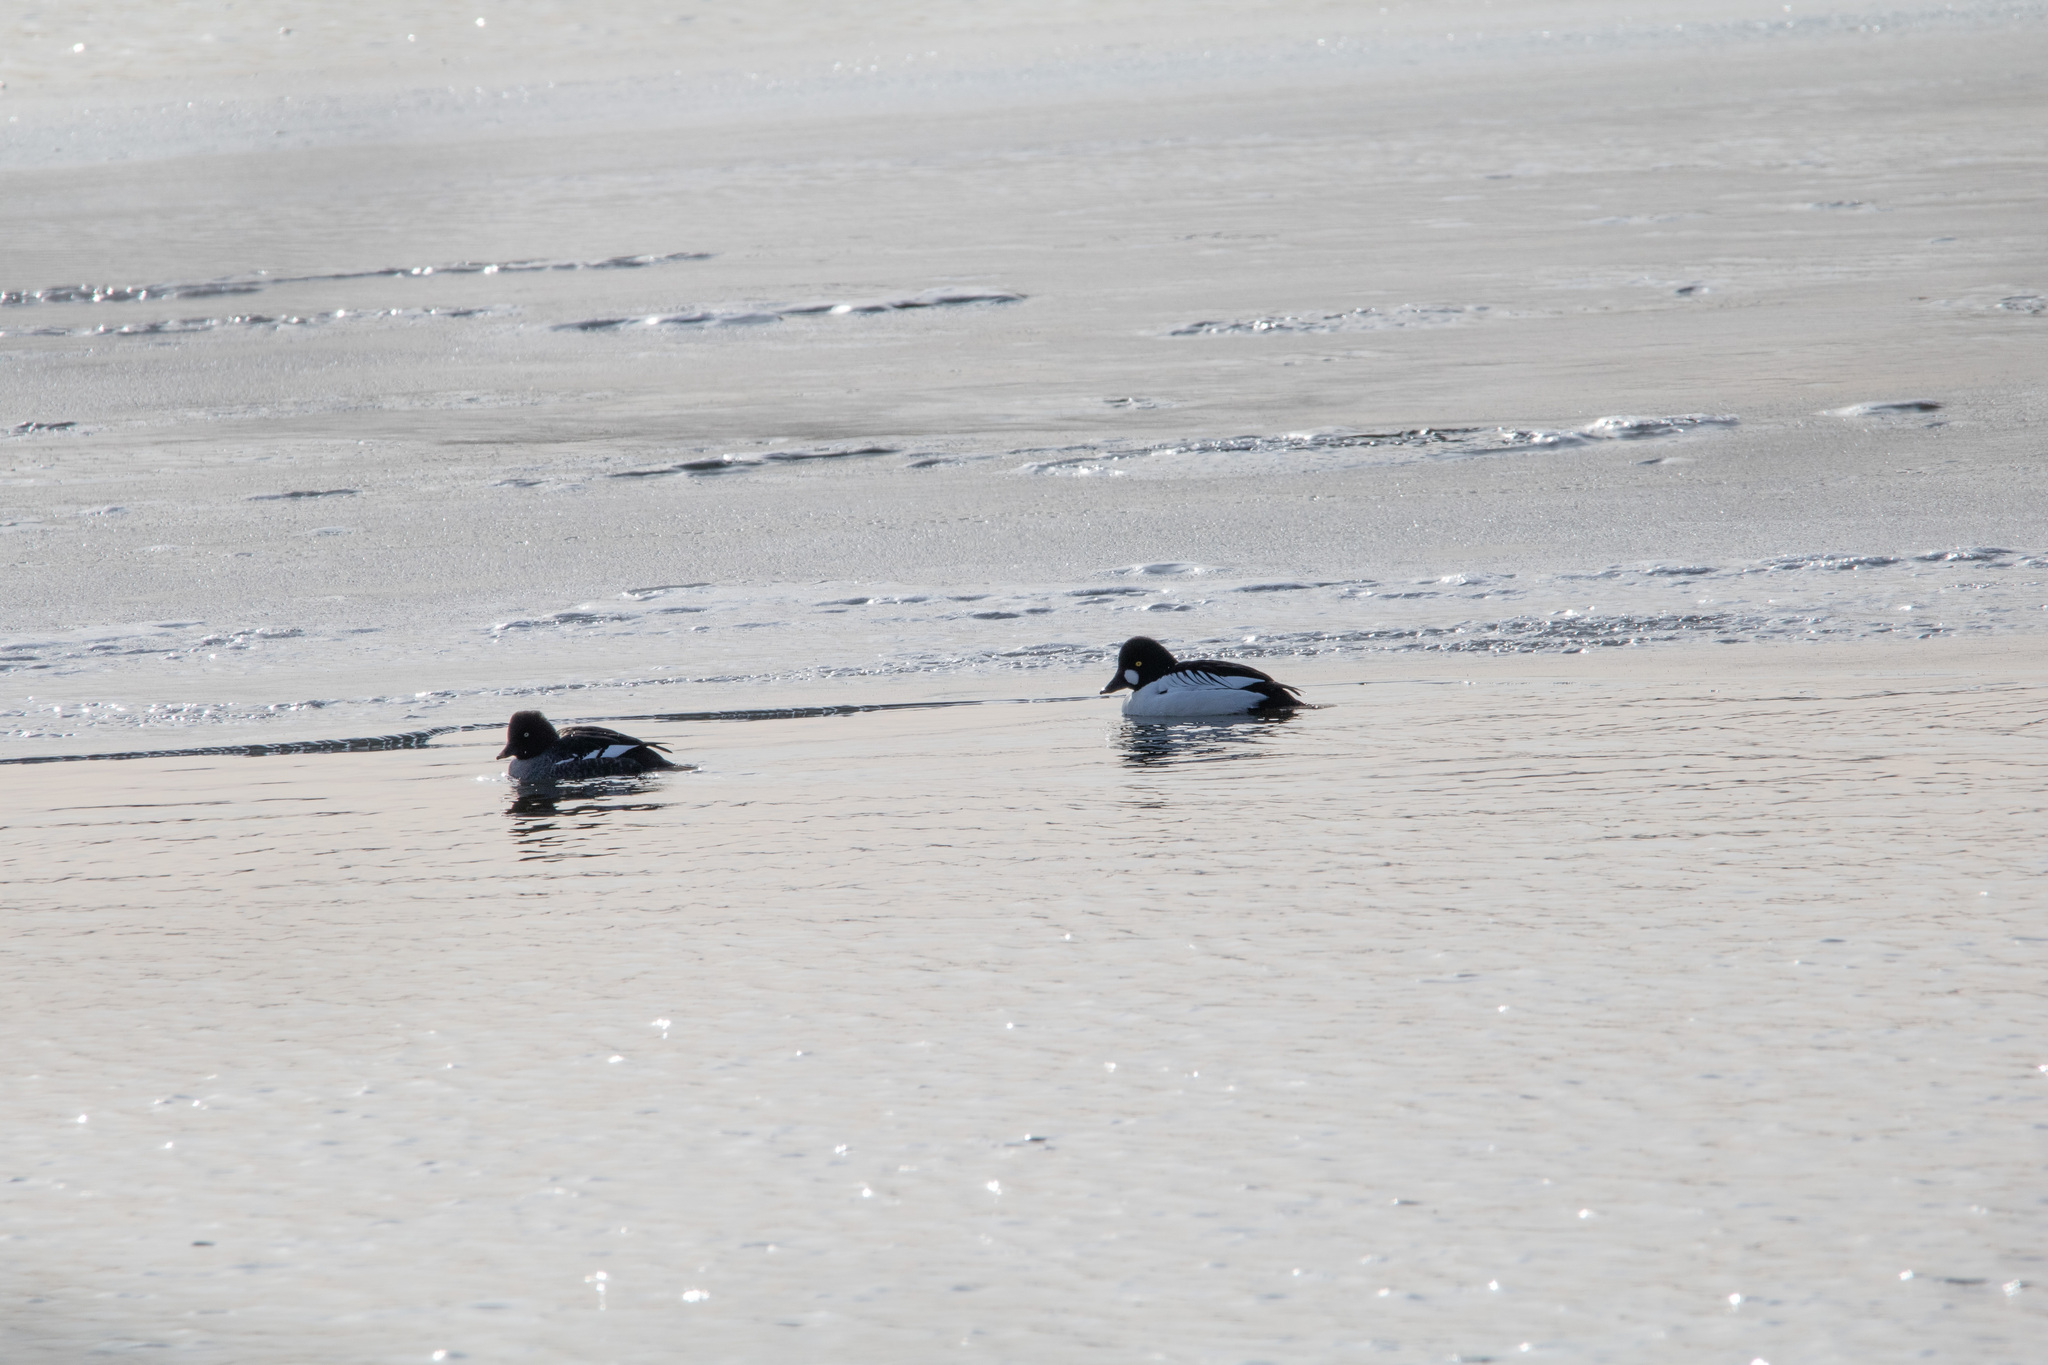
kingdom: Animalia
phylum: Chordata
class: Aves
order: Anseriformes
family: Anatidae
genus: Bucephala
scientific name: Bucephala clangula
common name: Common goldeneye
